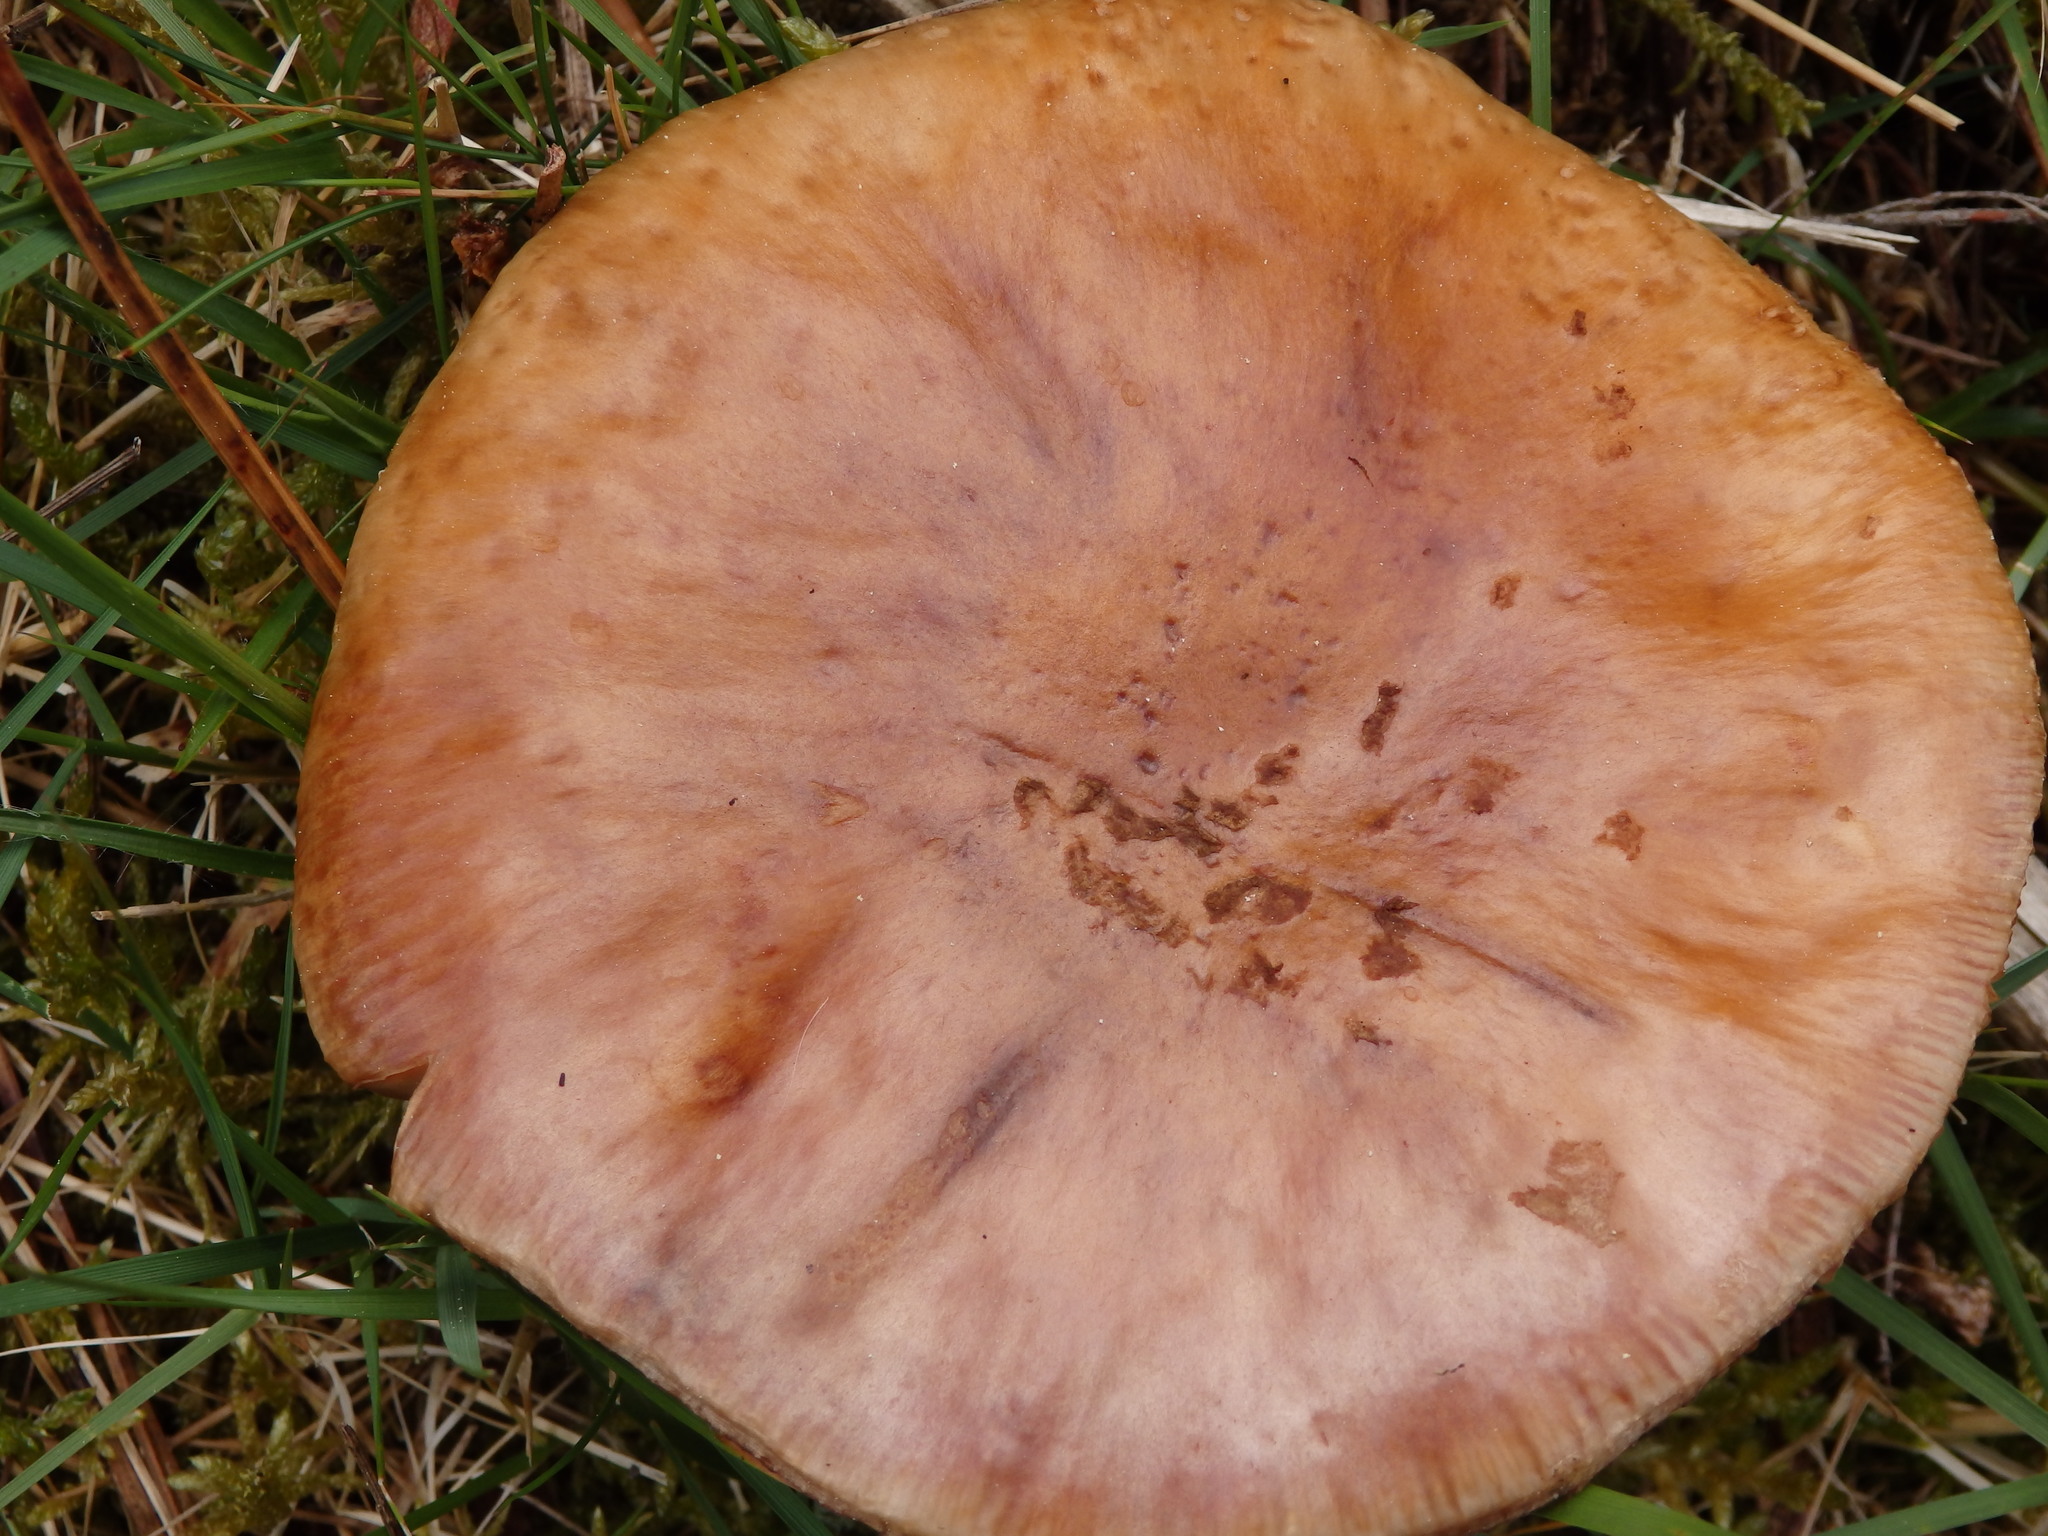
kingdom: Fungi
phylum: Basidiomycota
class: Agaricomycetes
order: Agaricales
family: Amanitaceae
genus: Amanita
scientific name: Amanita rubescens
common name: Blusher
